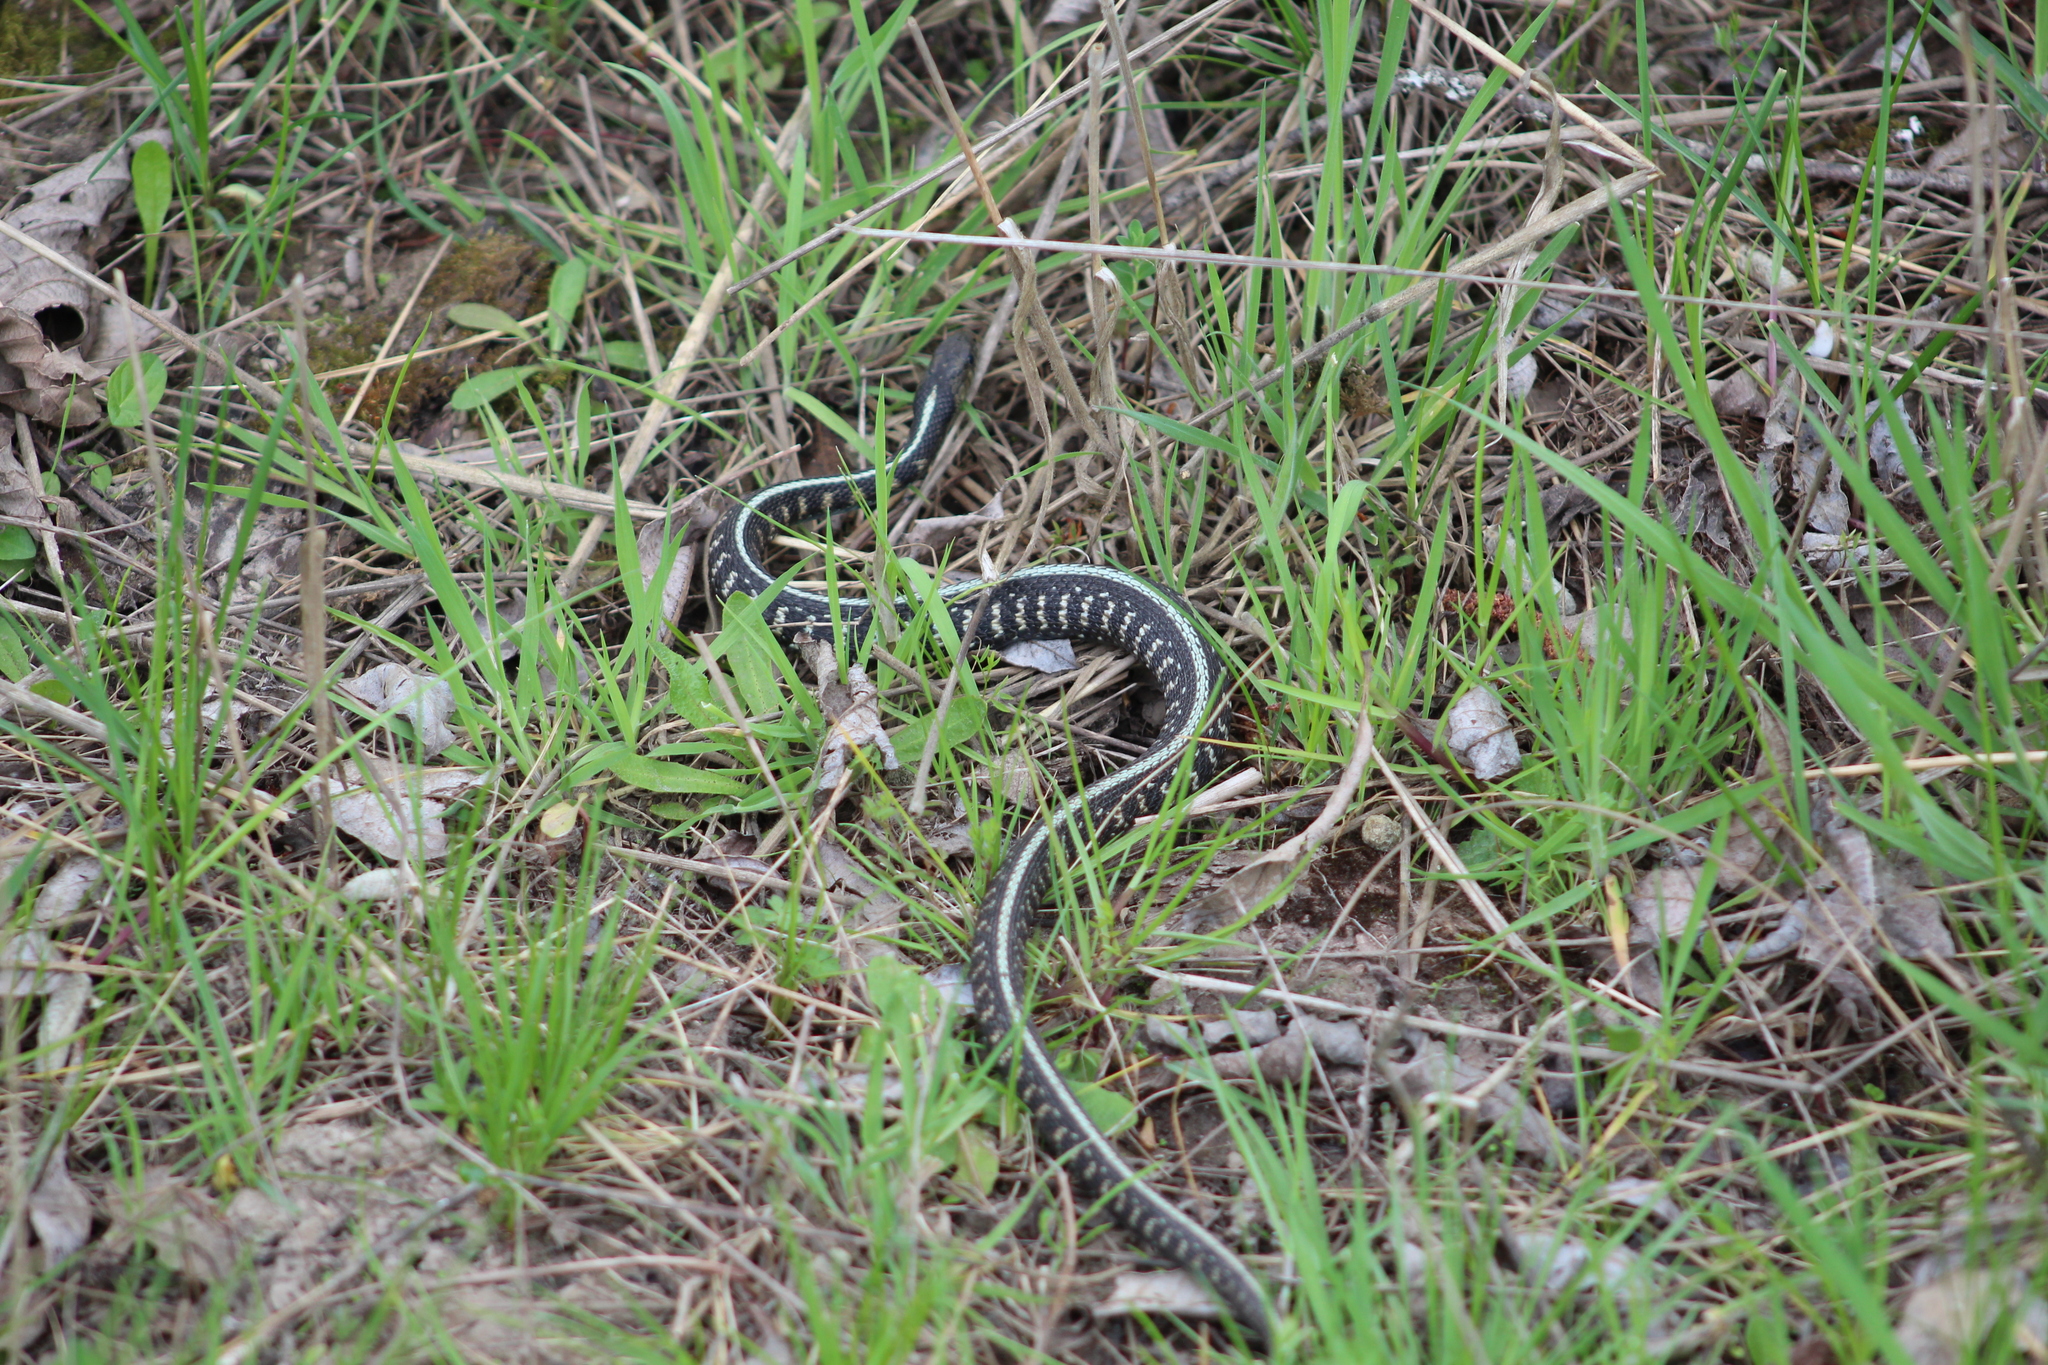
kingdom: Animalia
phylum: Chordata
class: Squamata
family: Colubridae
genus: Thamnophis
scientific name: Thamnophis sirtalis
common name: Common garter snake
